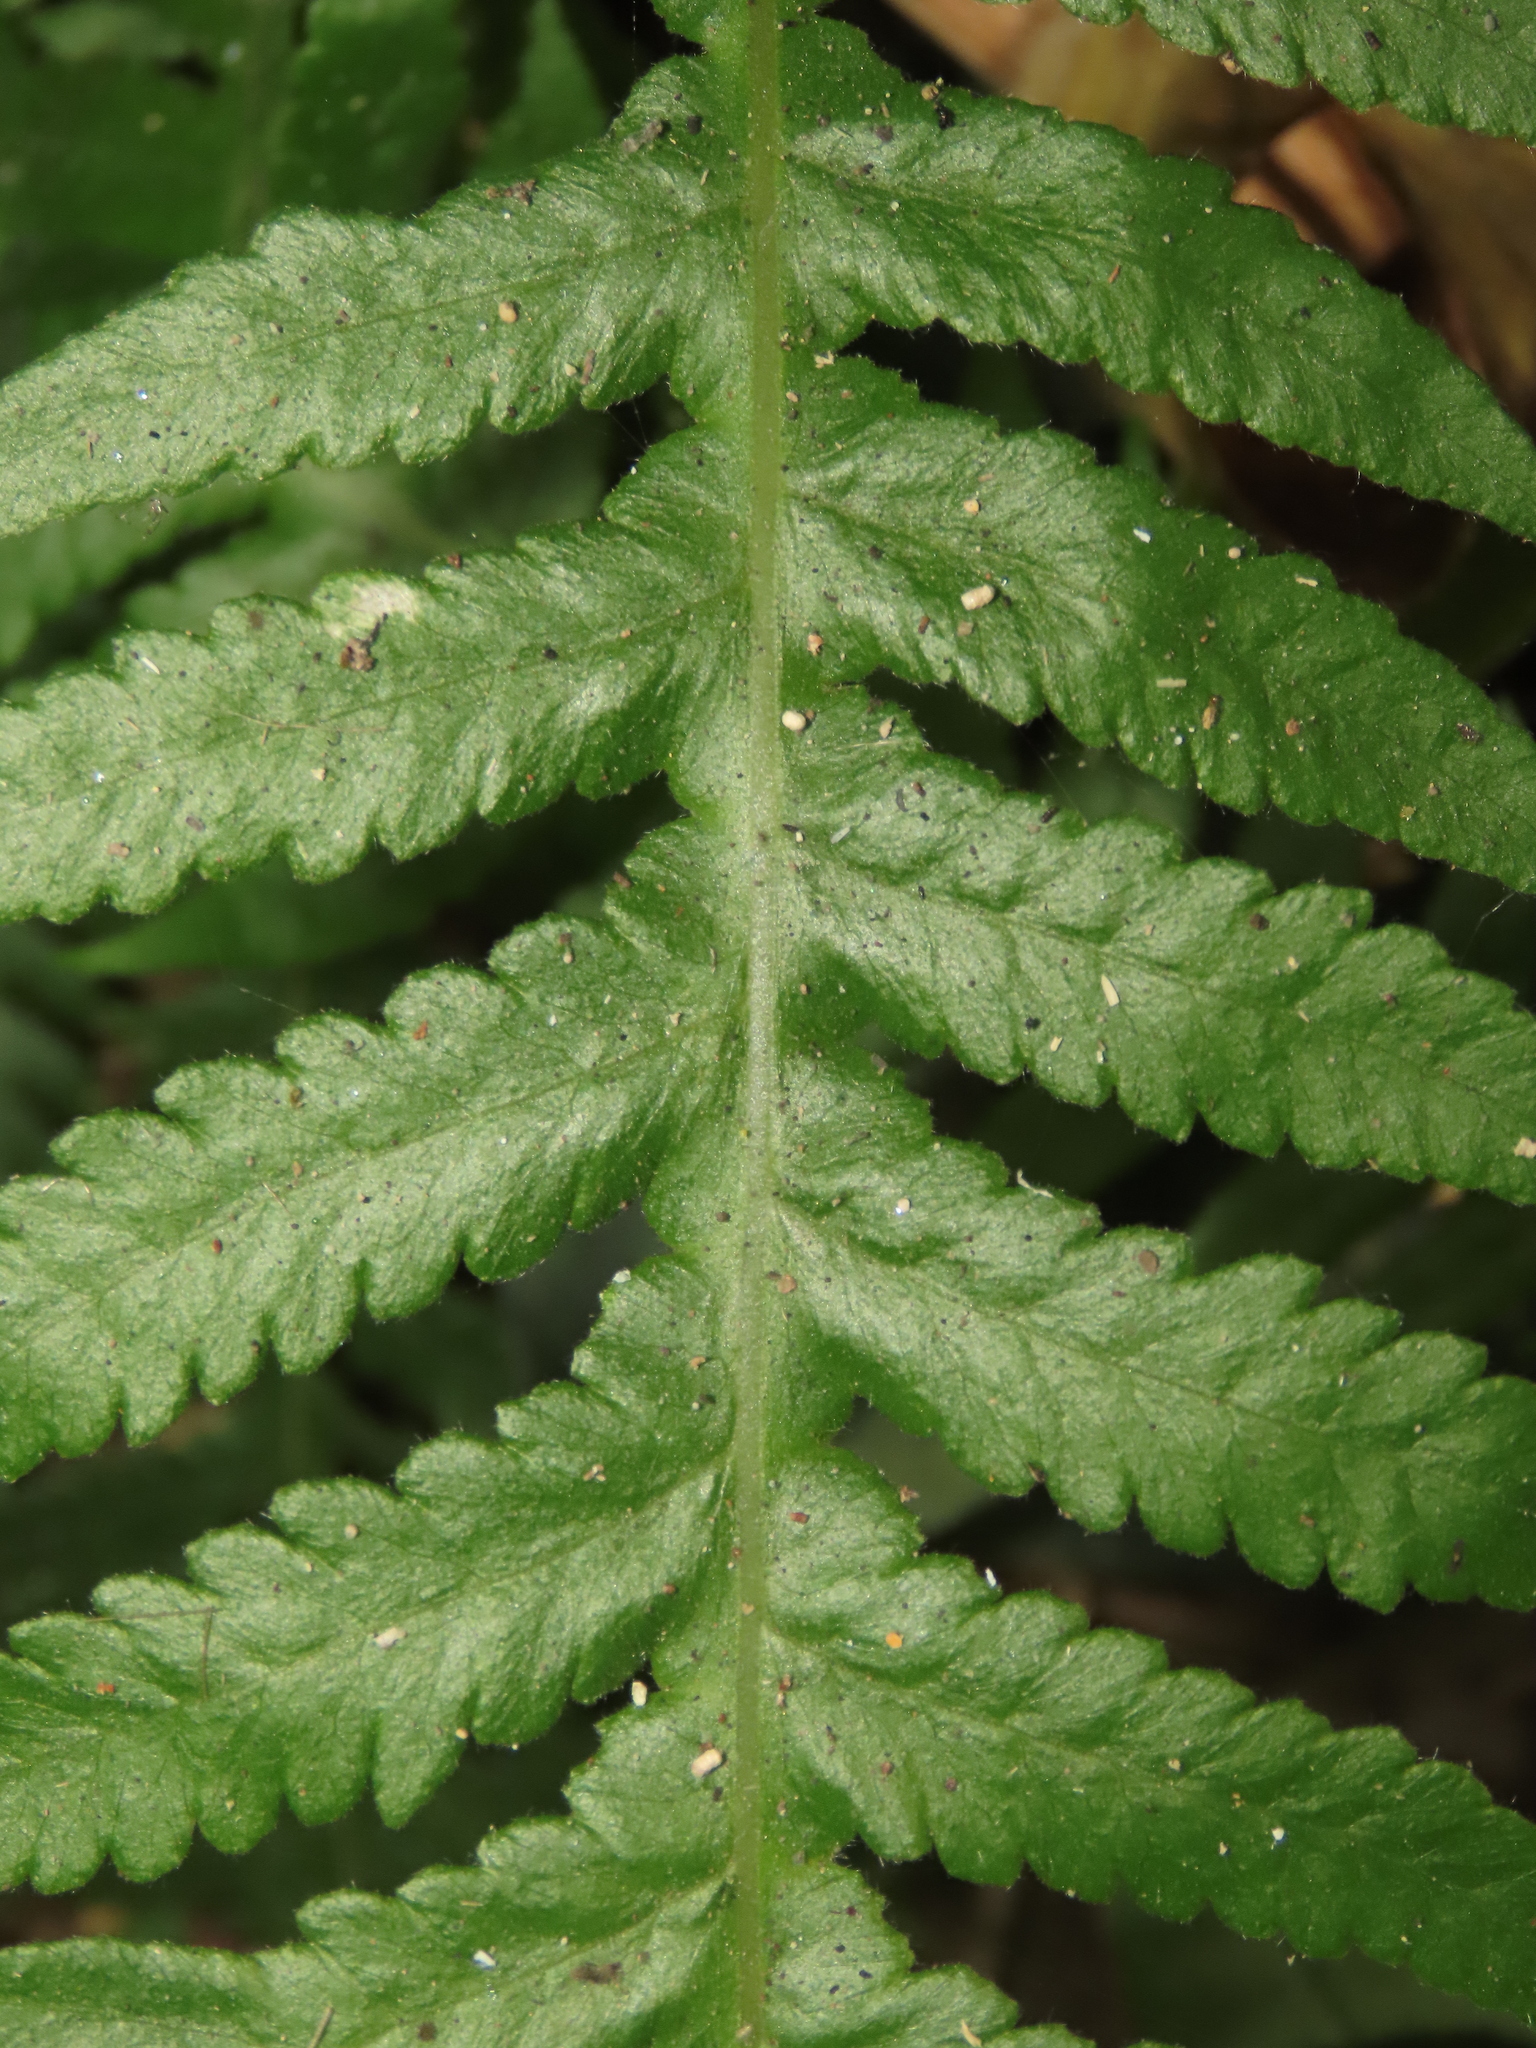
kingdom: Plantae
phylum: Tracheophyta
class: Polypodiopsida
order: Polypodiales
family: Thelypteridaceae
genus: Phegopteris
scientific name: Phegopteris decursive-pinnata
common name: Japanese beech fern
